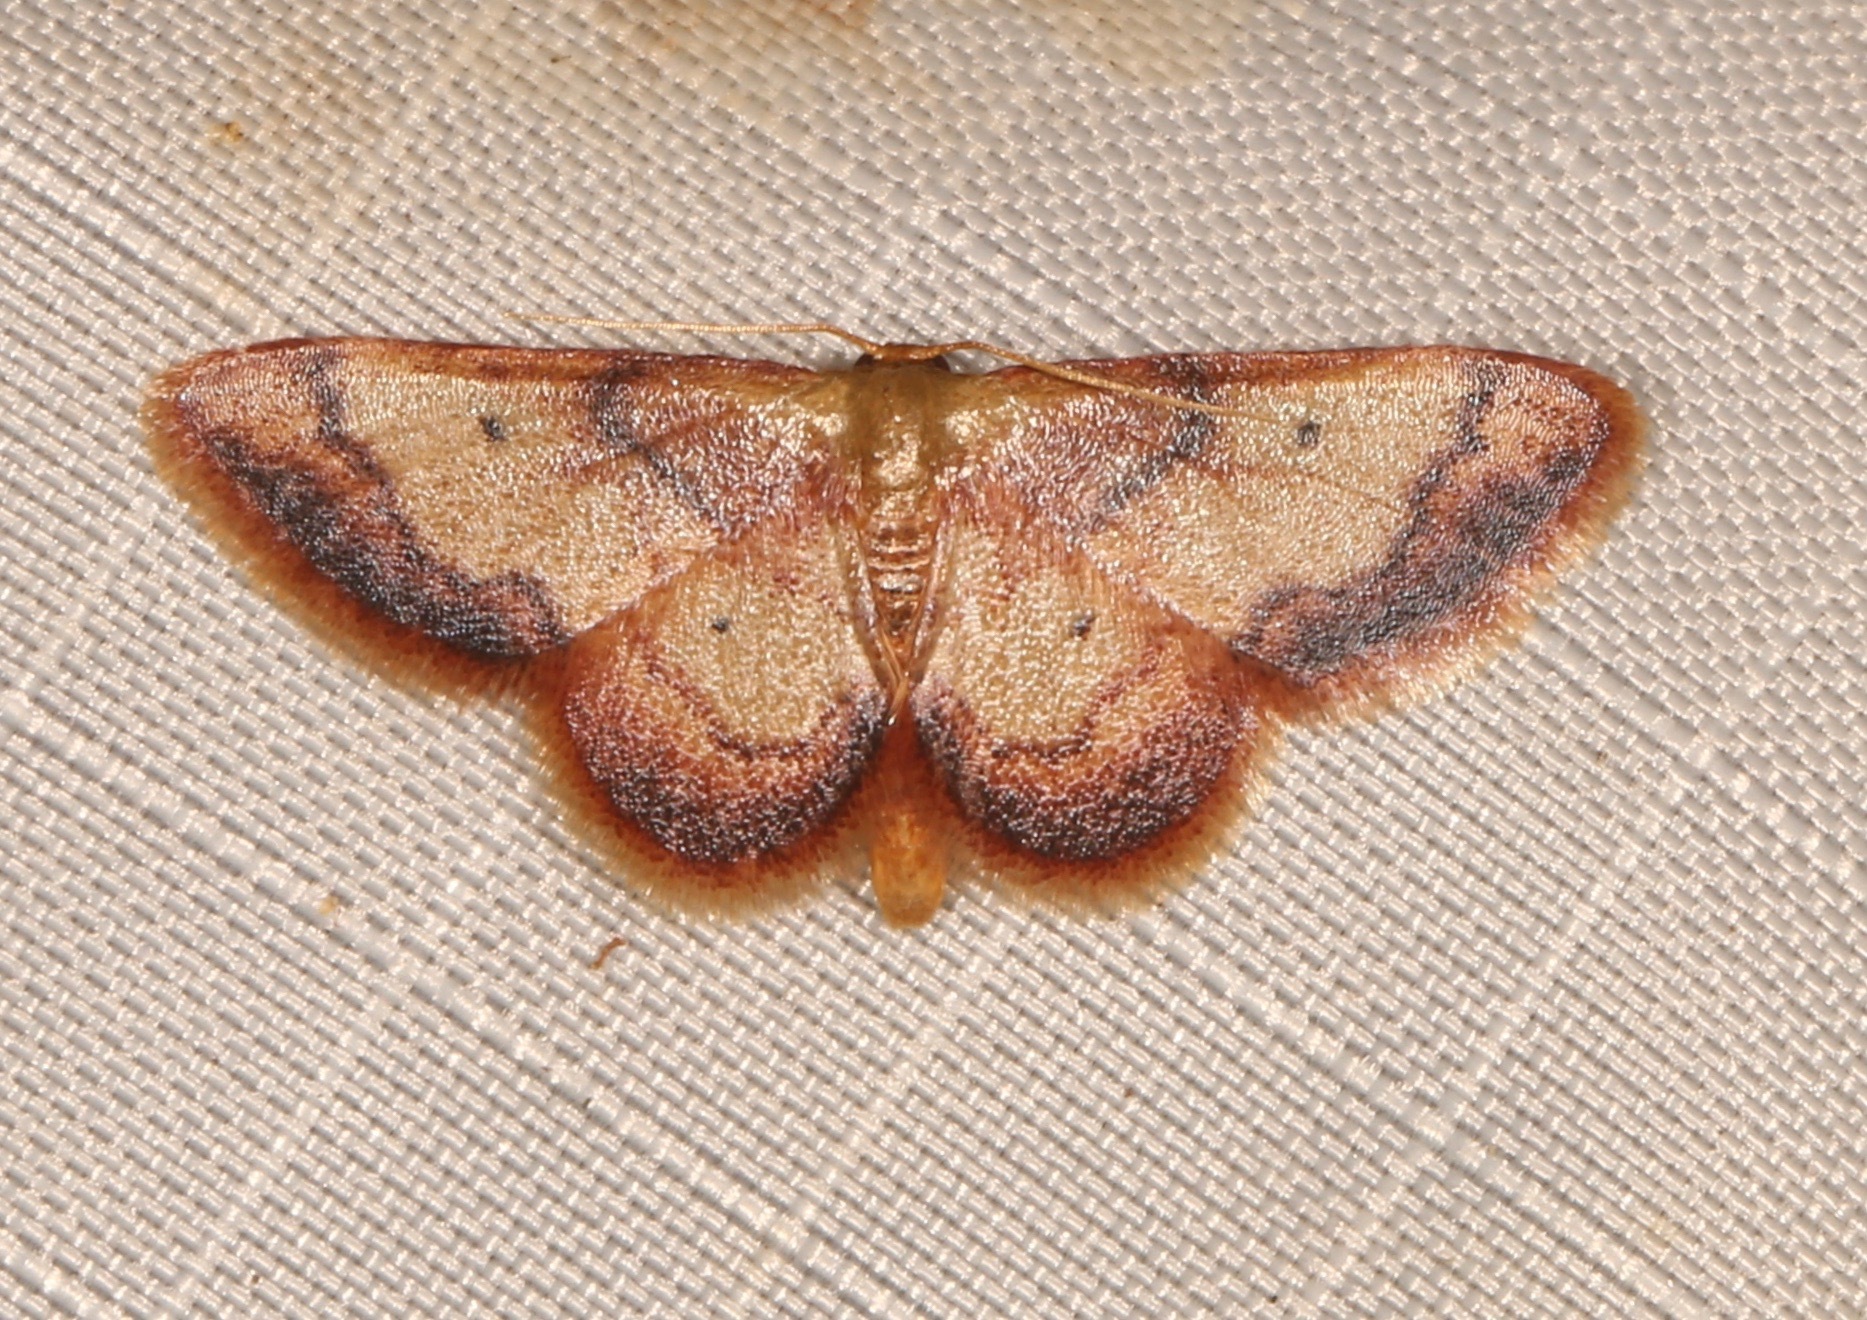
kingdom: Animalia
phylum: Arthropoda
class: Insecta
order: Lepidoptera
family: Geometridae
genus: Idaea
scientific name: Idaea demissaria
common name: Red-bordered wave
